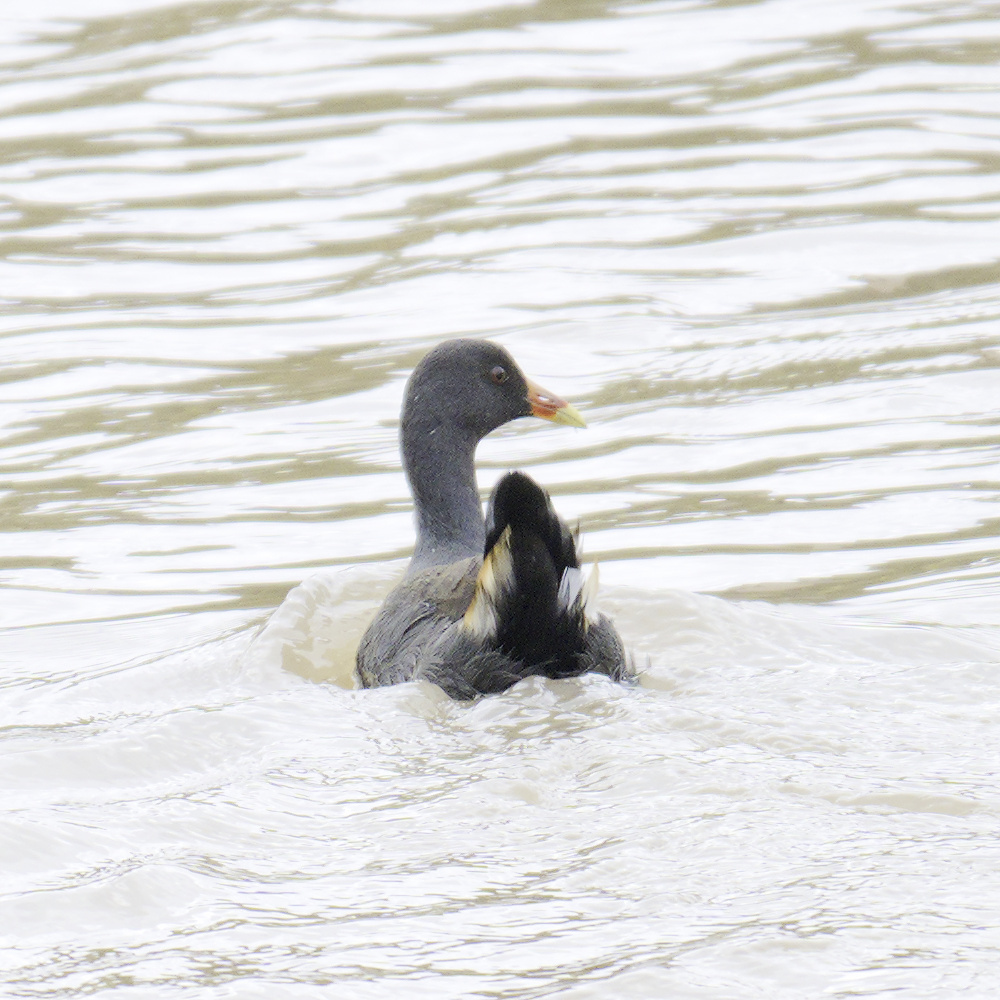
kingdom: Animalia
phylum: Chordata
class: Aves
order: Gruiformes
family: Rallidae
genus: Gallinula
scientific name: Gallinula tenebrosa
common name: Dusky moorhen
